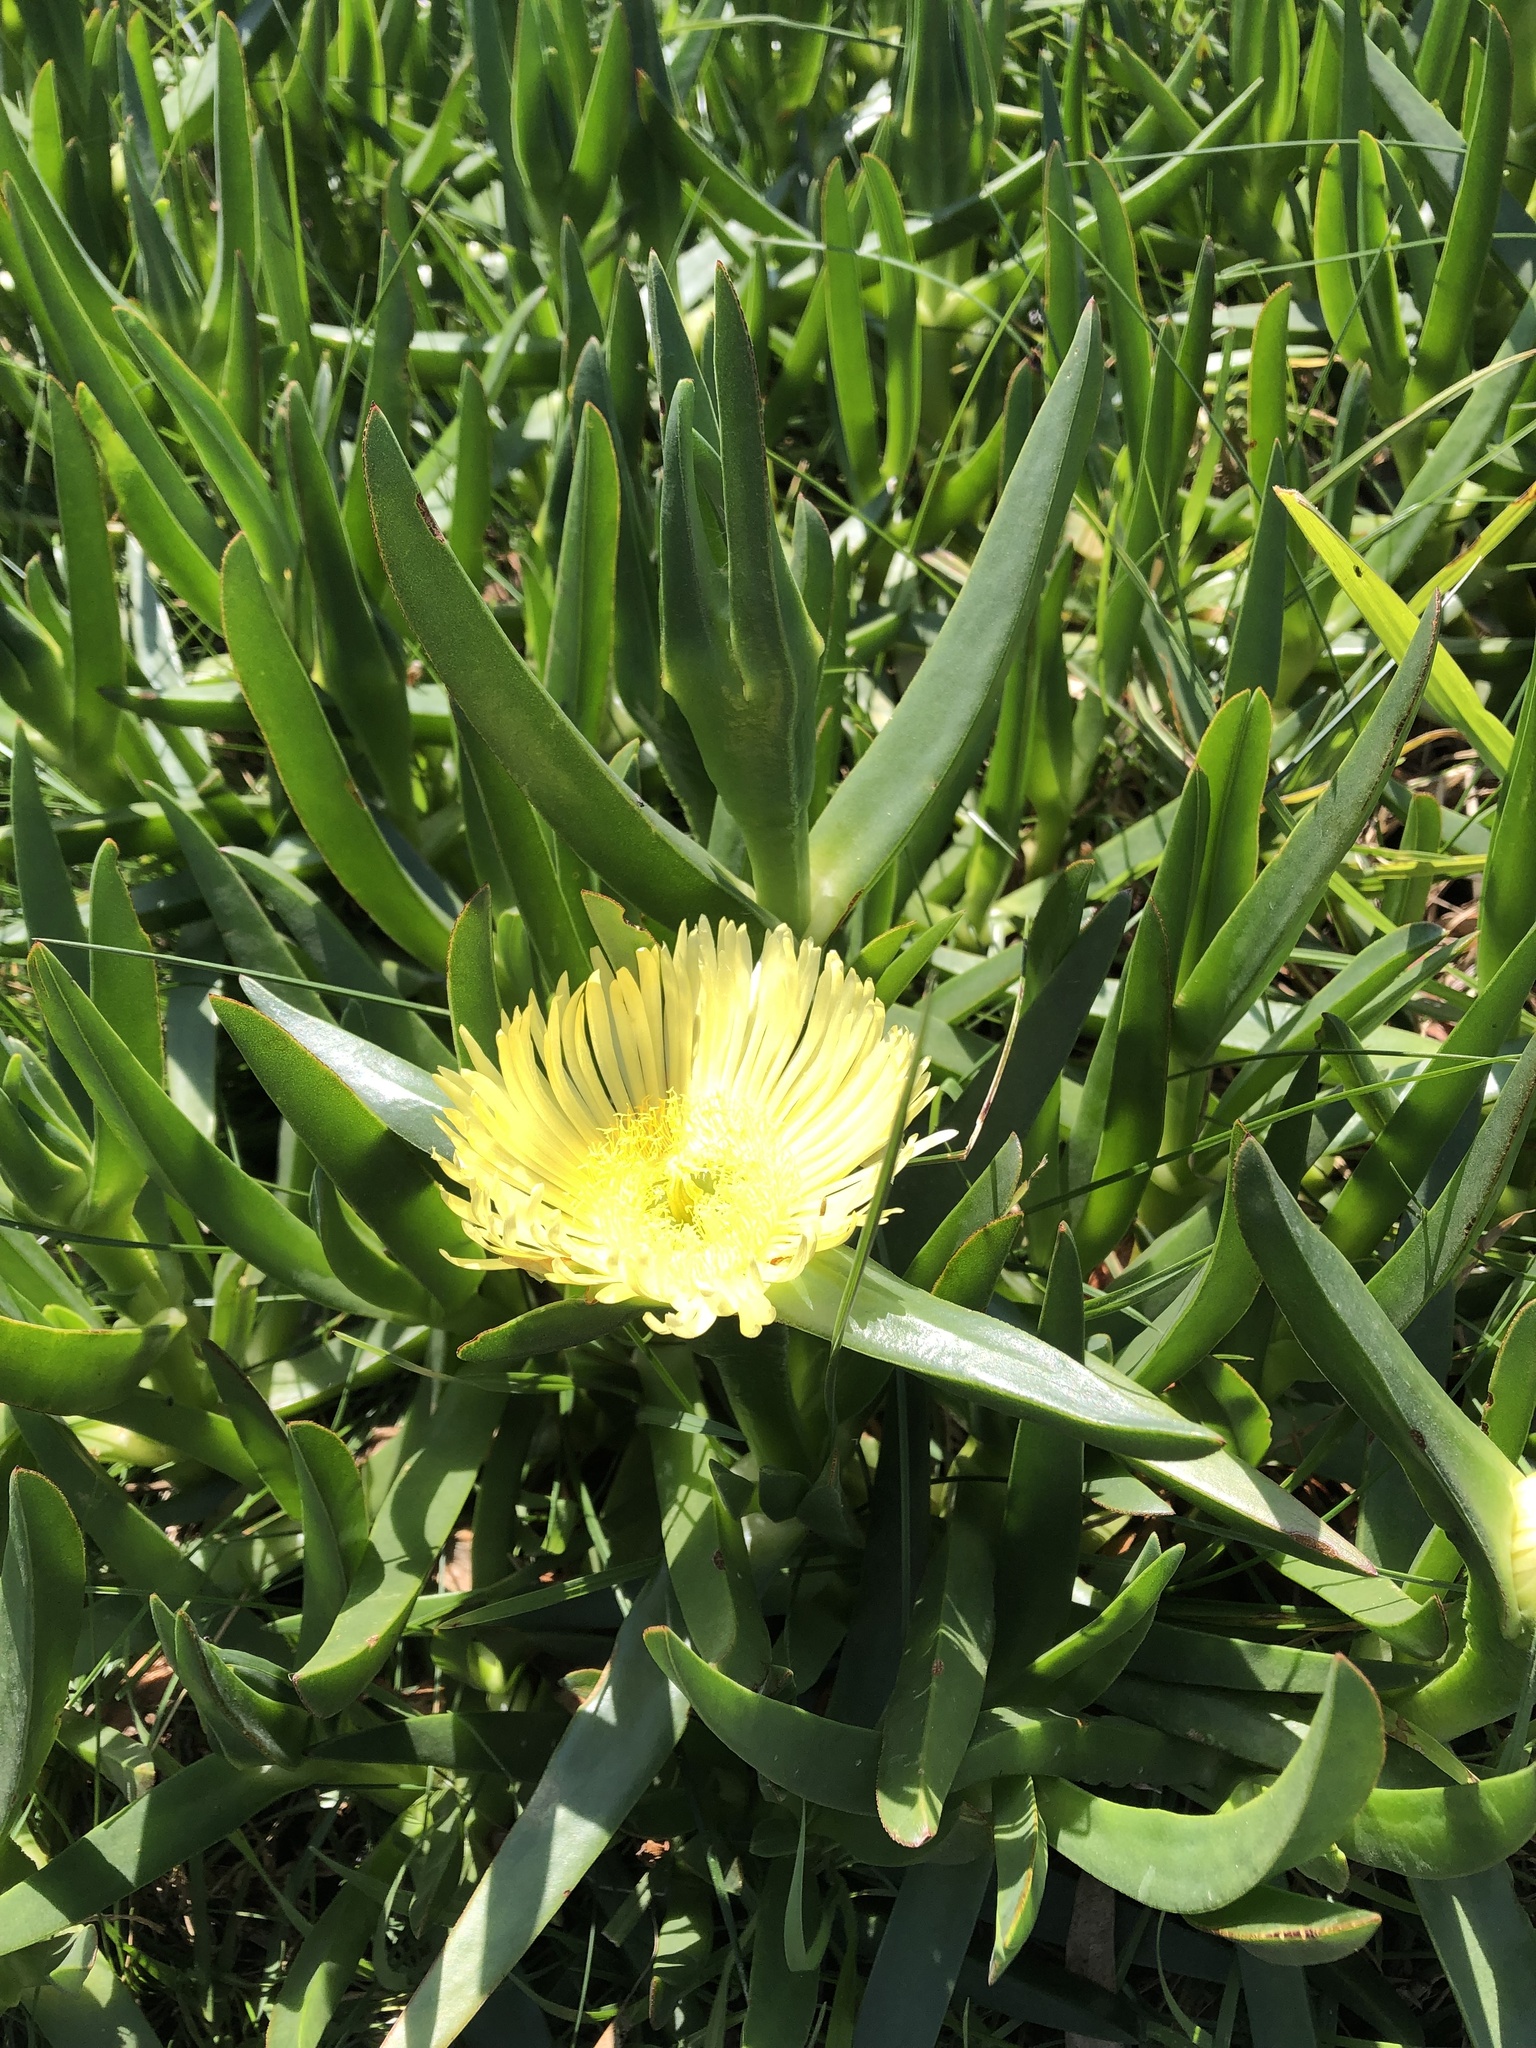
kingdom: Plantae
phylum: Tracheophyta
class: Magnoliopsida
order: Caryophyllales
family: Aizoaceae
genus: Carpobrotus
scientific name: Carpobrotus edulis
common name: Hottentot-fig
